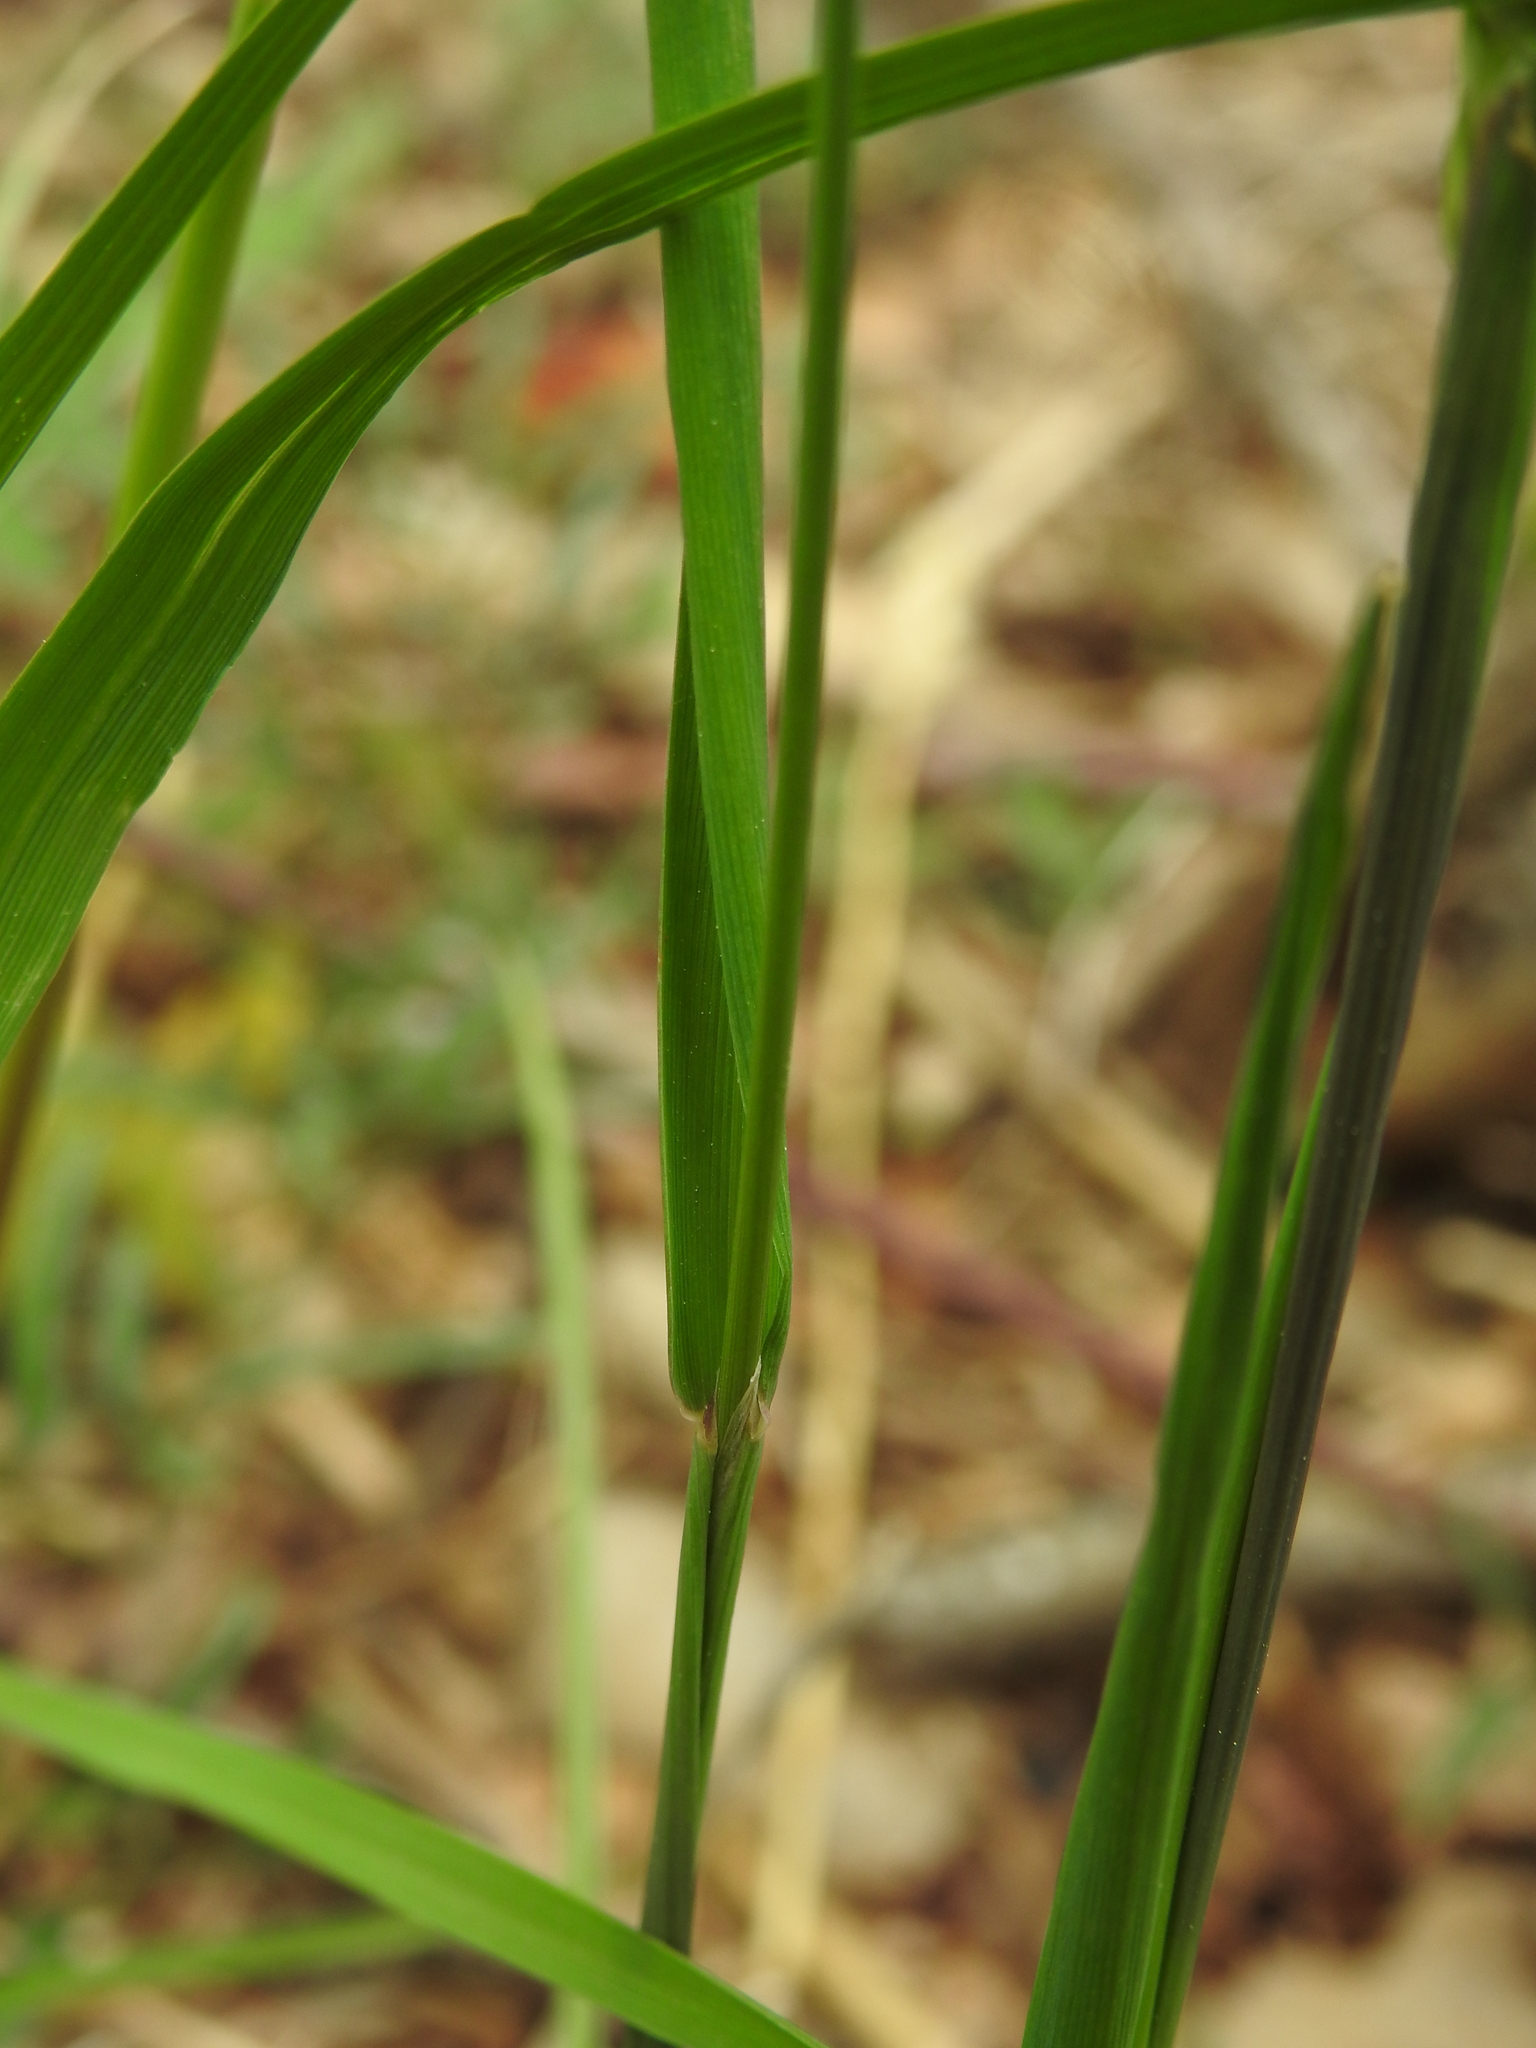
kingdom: Plantae
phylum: Tracheophyta
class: Liliopsida
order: Poales
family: Poaceae
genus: Alopecurus
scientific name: Alopecurus myosuroides
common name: Black-grass
